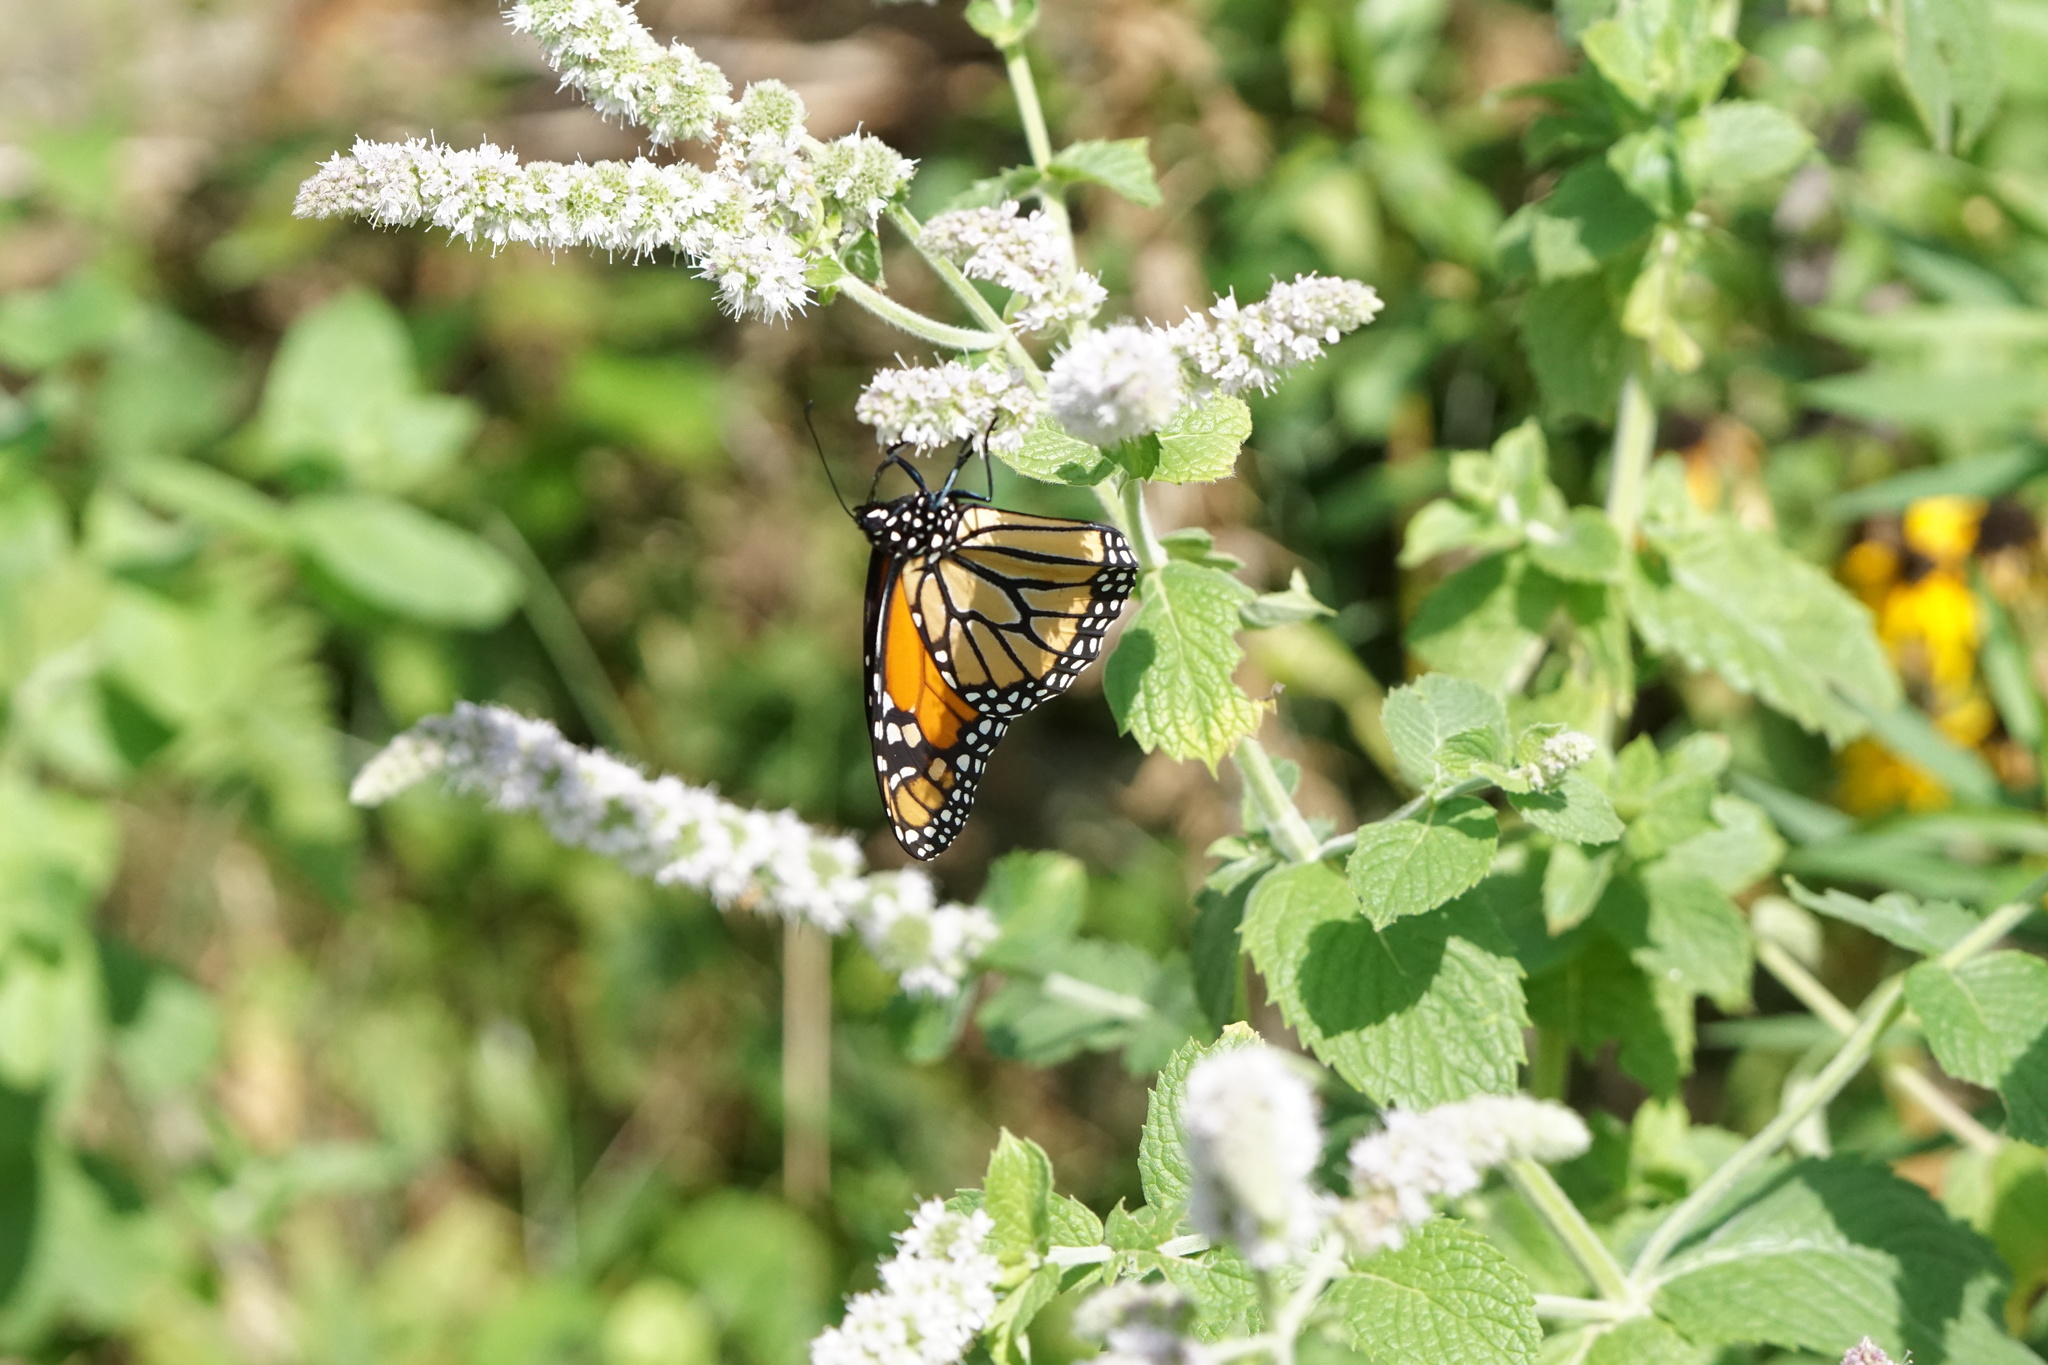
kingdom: Animalia
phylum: Arthropoda
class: Insecta
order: Lepidoptera
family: Nymphalidae
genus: Danaus
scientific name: Danaus plexippus
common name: Monarch
